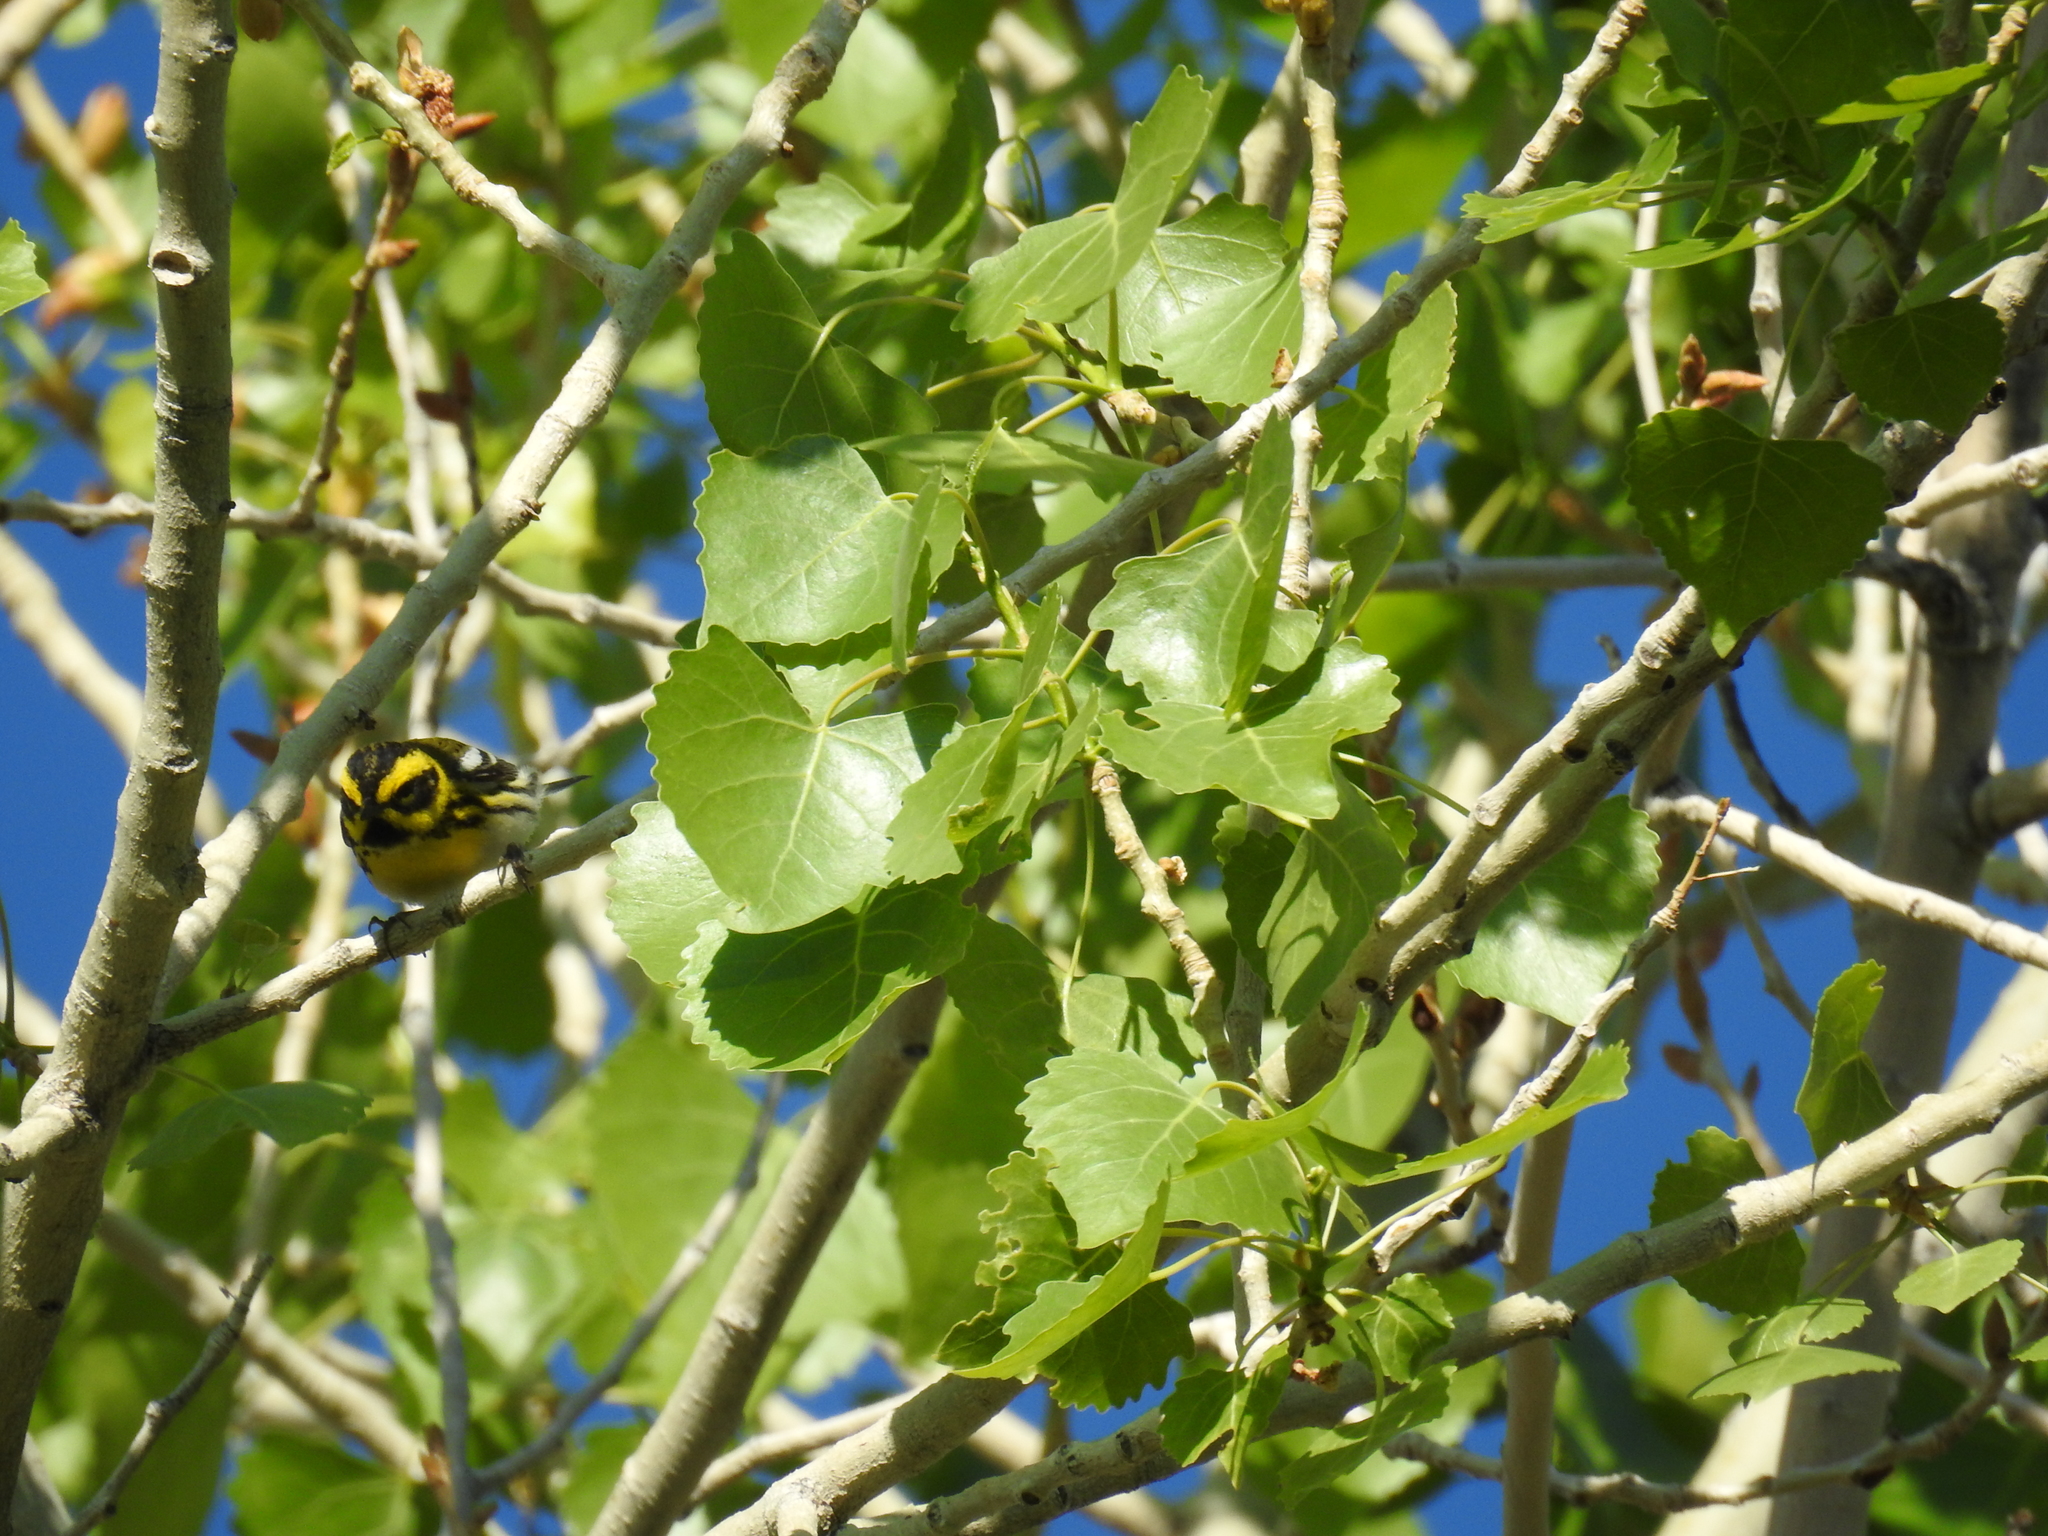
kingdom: Animalia
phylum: Chordata
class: Aves
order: Passeriformes
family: Parulidae
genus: Setophaga
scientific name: Setophaga townsendi
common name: Townsend's warbler
